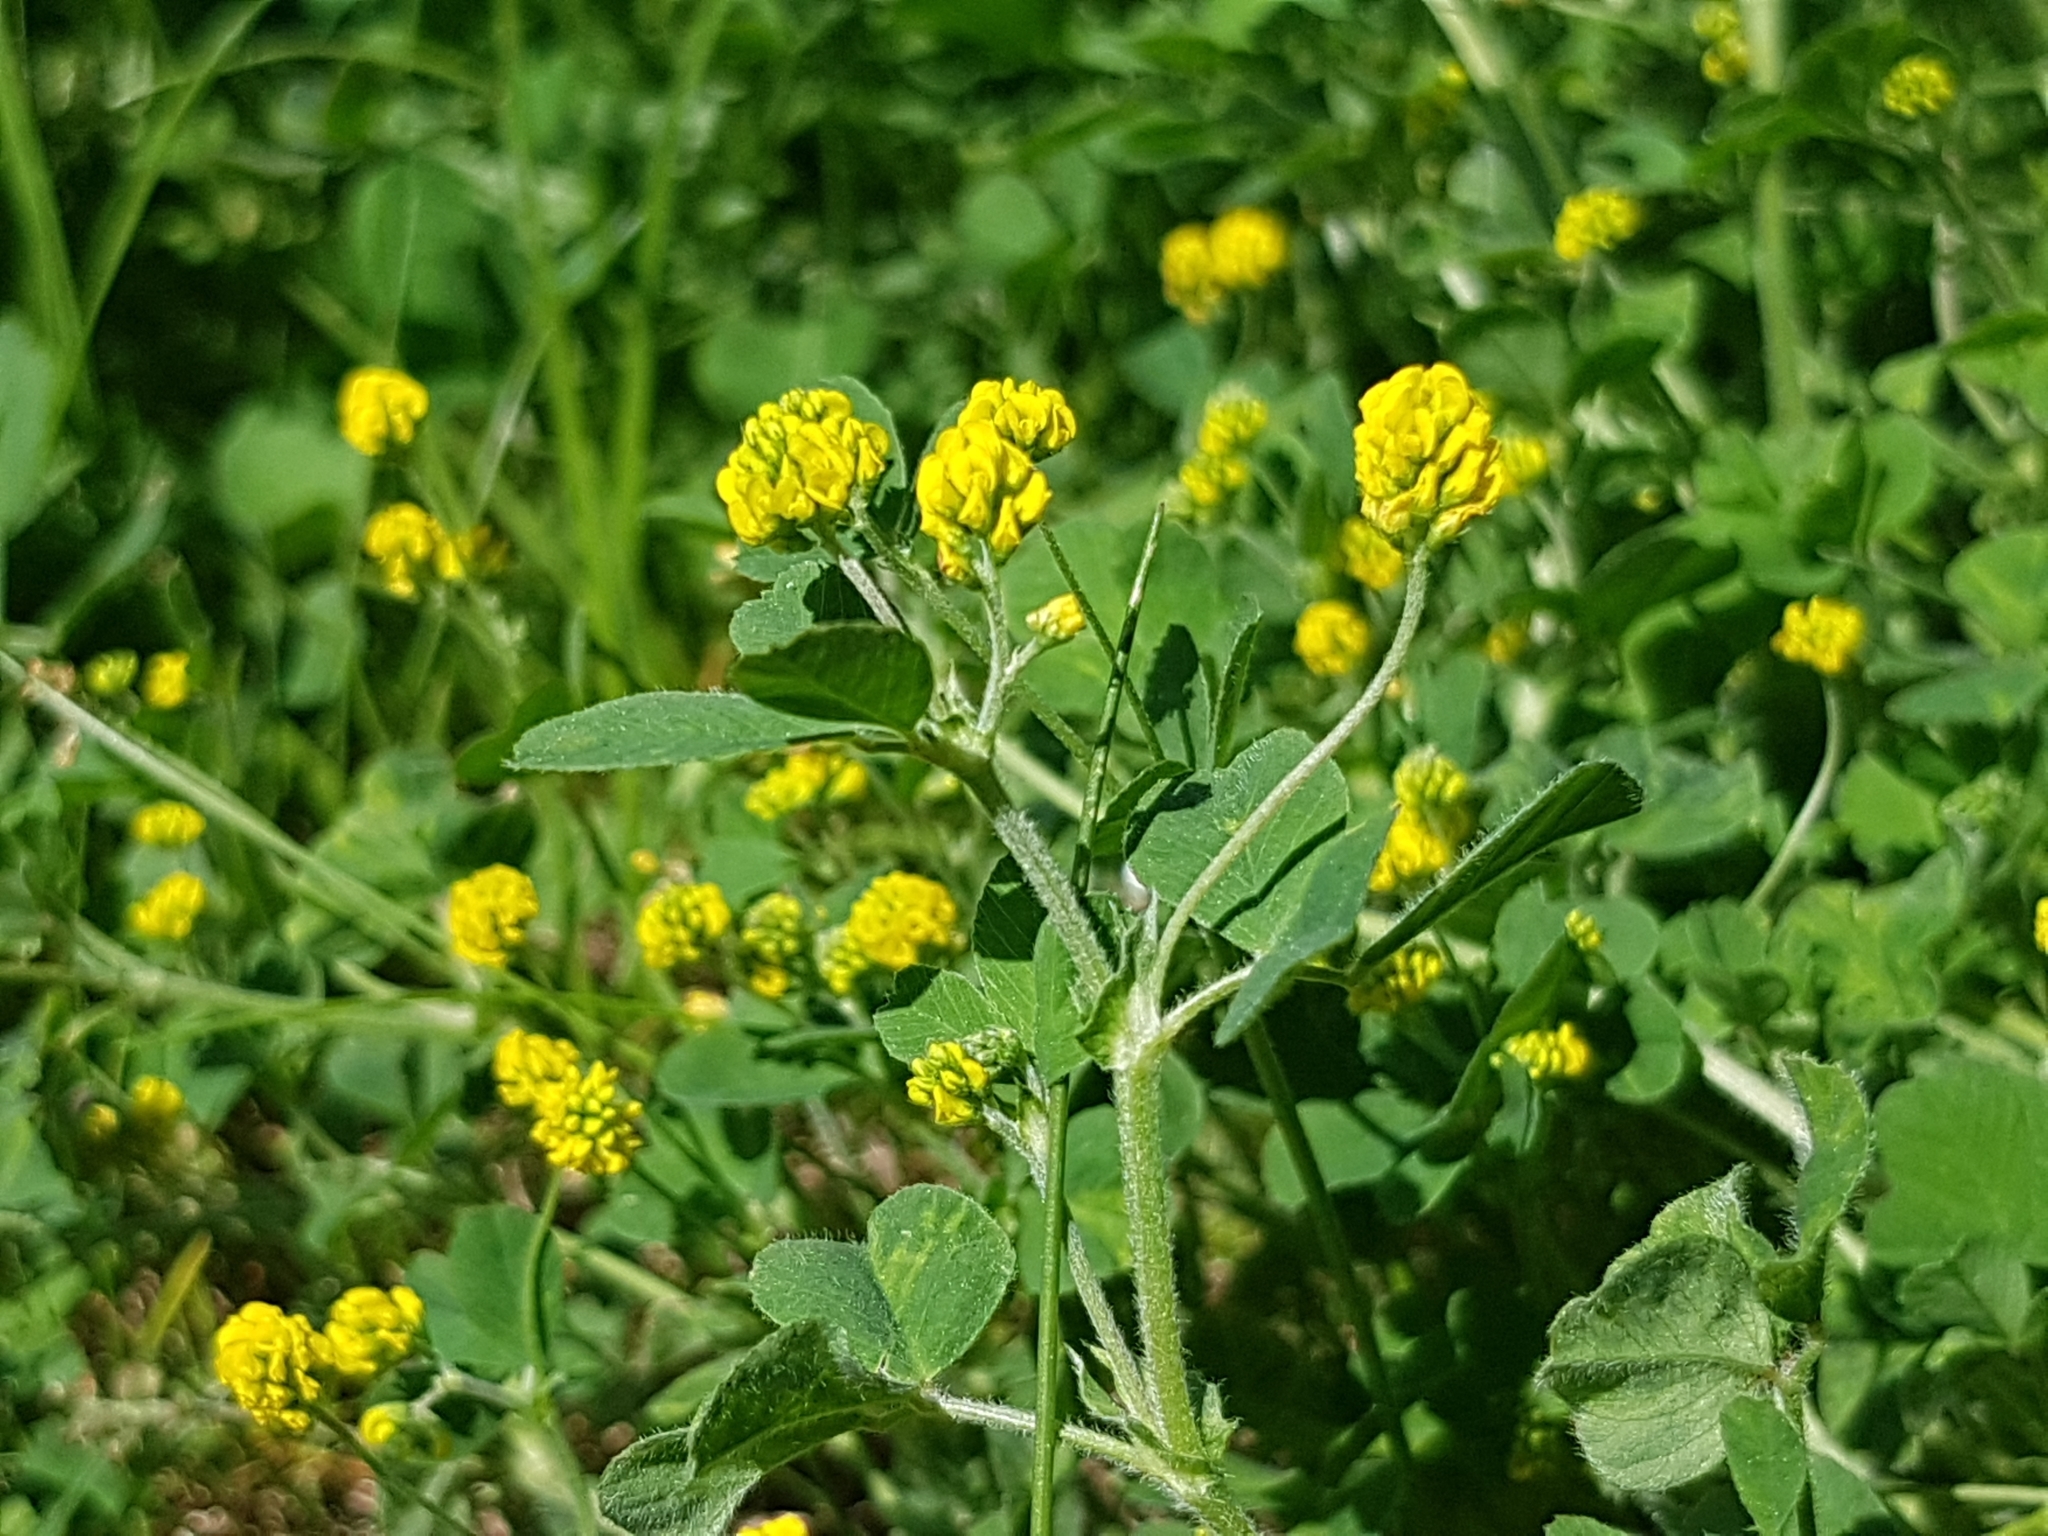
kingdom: Plantae
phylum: Tracheophyta
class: Magnoliopsida
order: Fabales
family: Fabaceae
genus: Medicago
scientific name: Medicago lupulina
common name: Black medick
